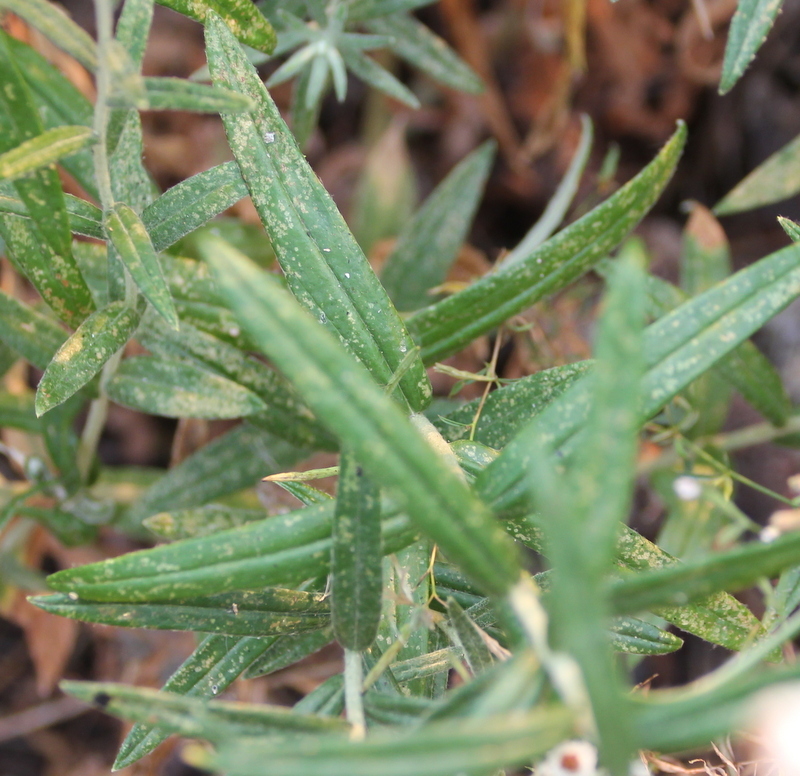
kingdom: Plantae
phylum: Tracheophyta
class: Magnoliopsida
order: Asterales
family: Asteraceae
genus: Anaphalis
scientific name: Anaphalis margaritacea
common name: Pearly everlasting
